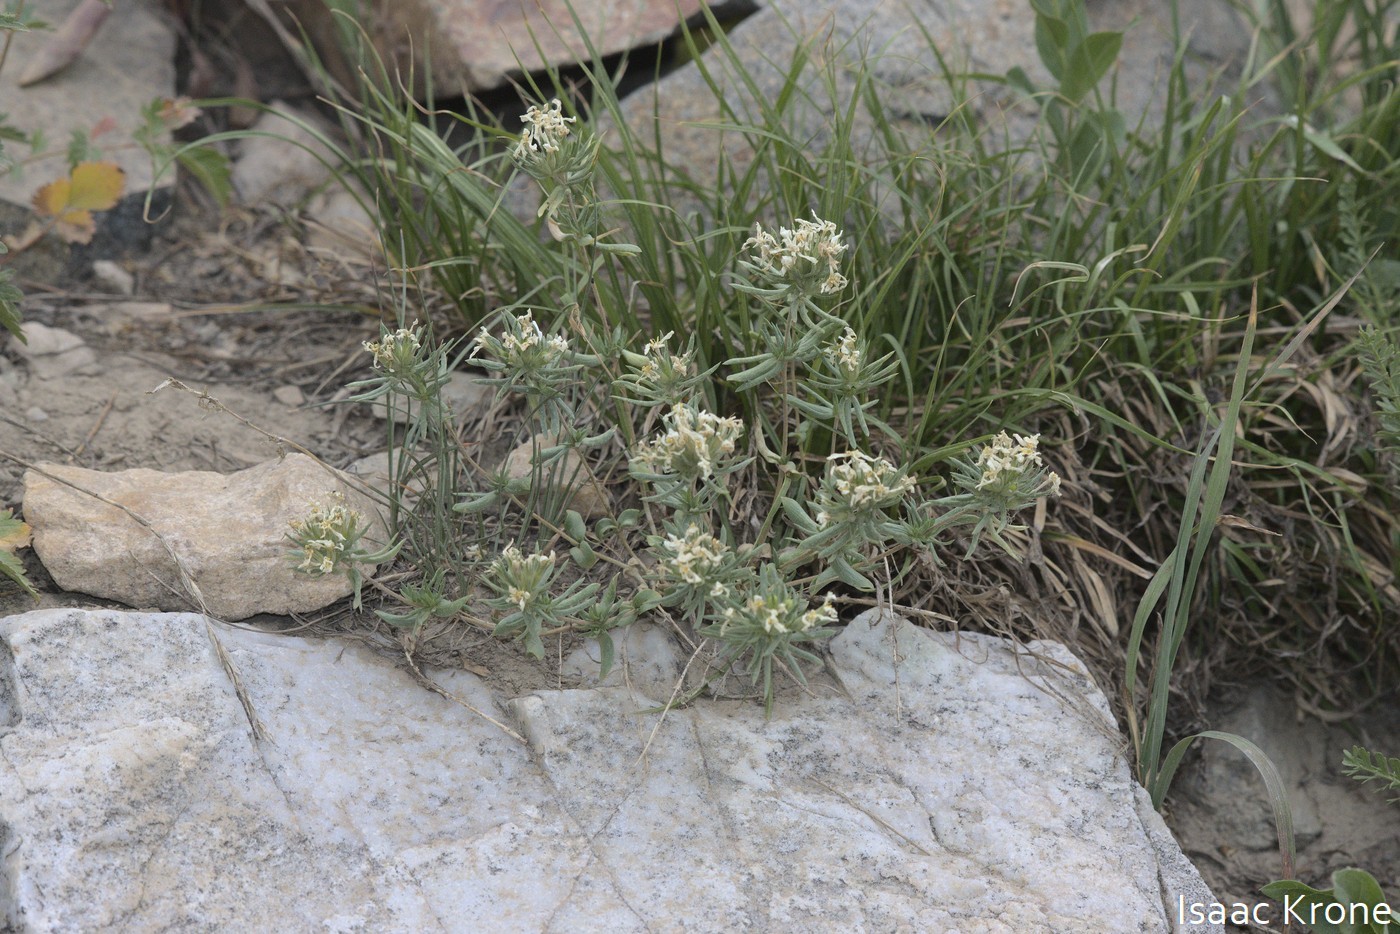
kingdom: Plantae
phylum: Tracheophyta
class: Magnoliopsida
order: Ericales
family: Polemoniaceae
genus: Leptosiphon
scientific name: Leptosiphon nuttallii
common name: Nuttall's linanthus
